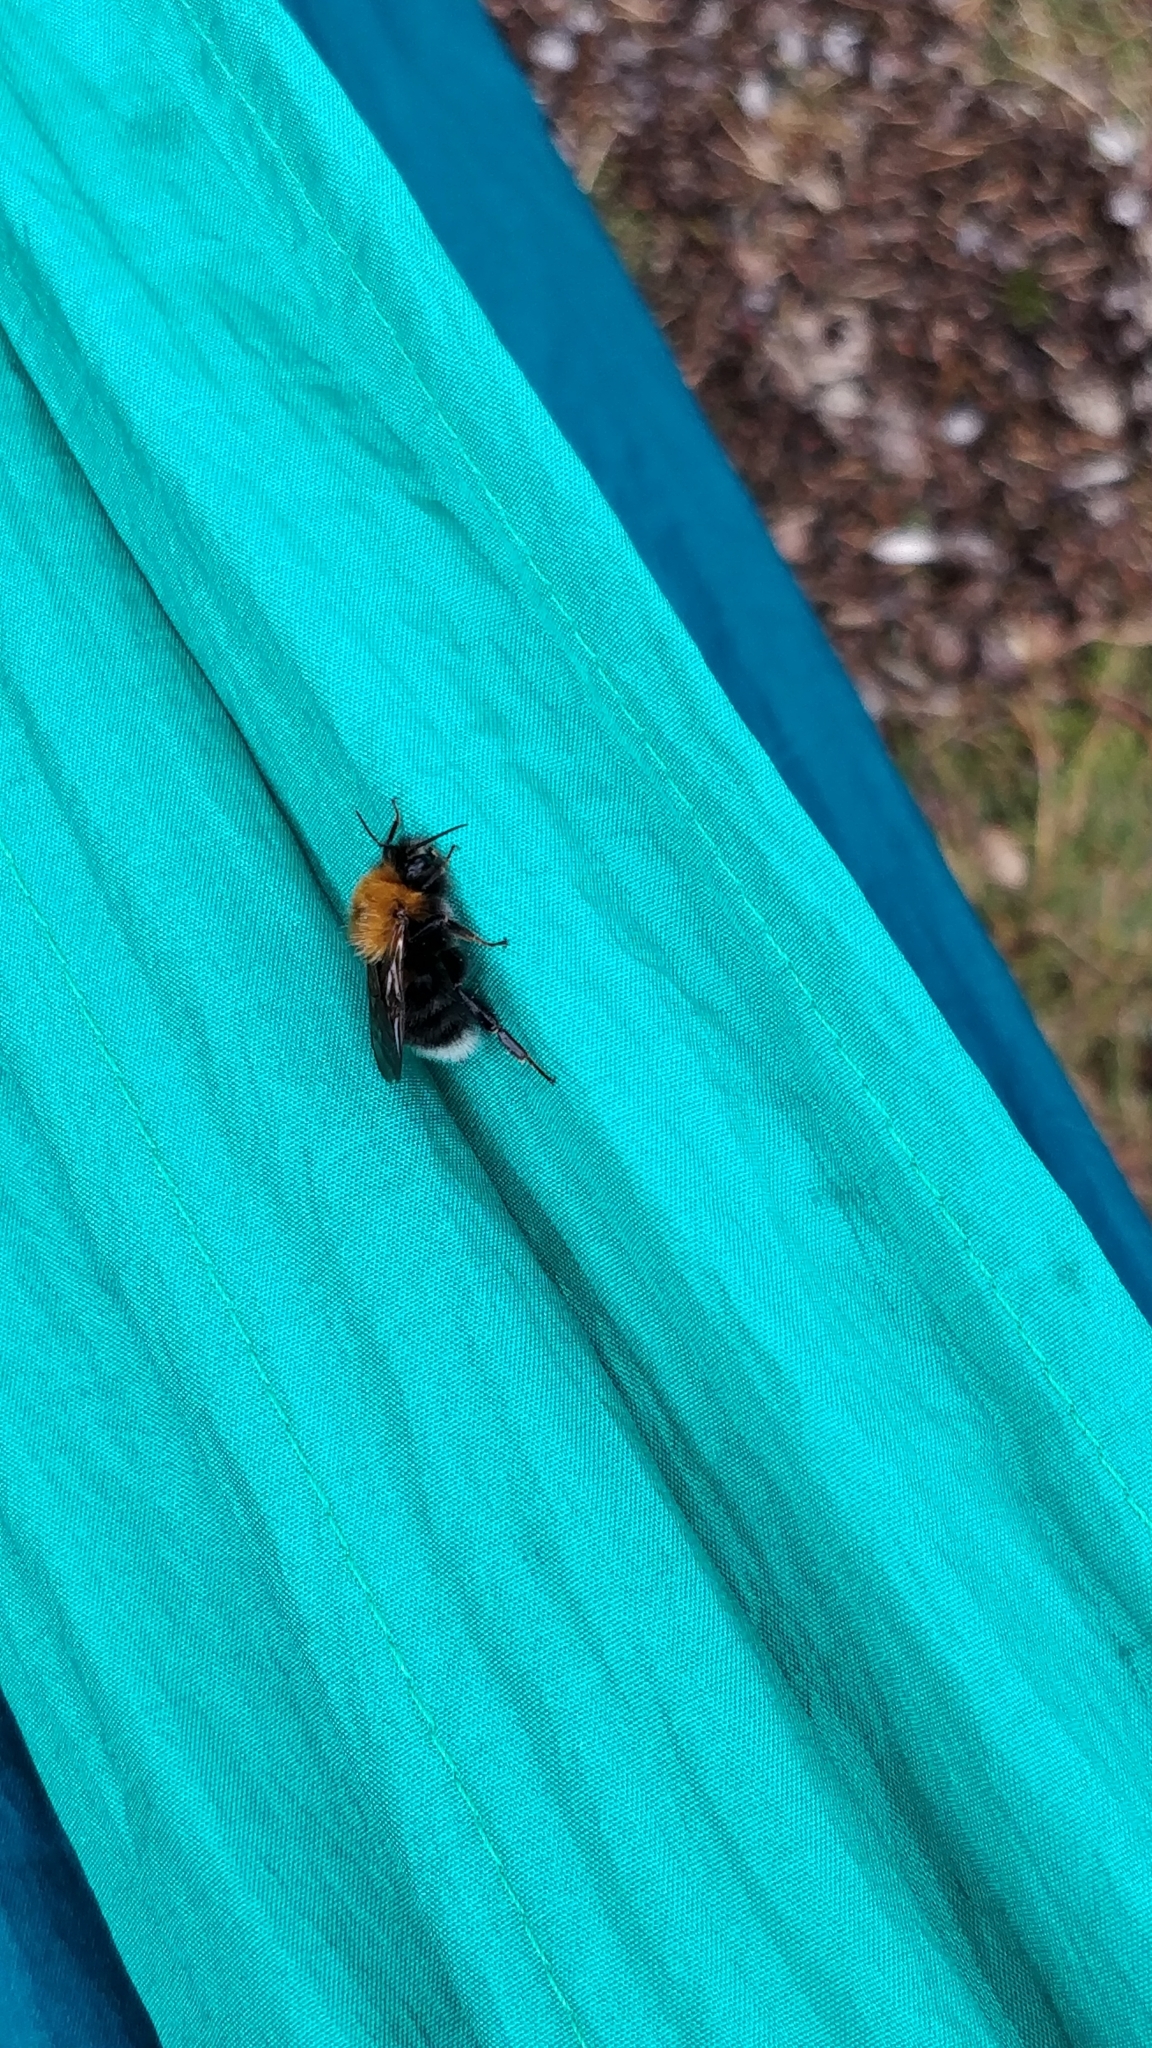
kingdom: Animalia
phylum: Arthropoda
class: Insecta
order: Hymenoptera
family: Apidae
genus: Bombus
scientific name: Bombus hypnorum
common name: New garden bumblebee
